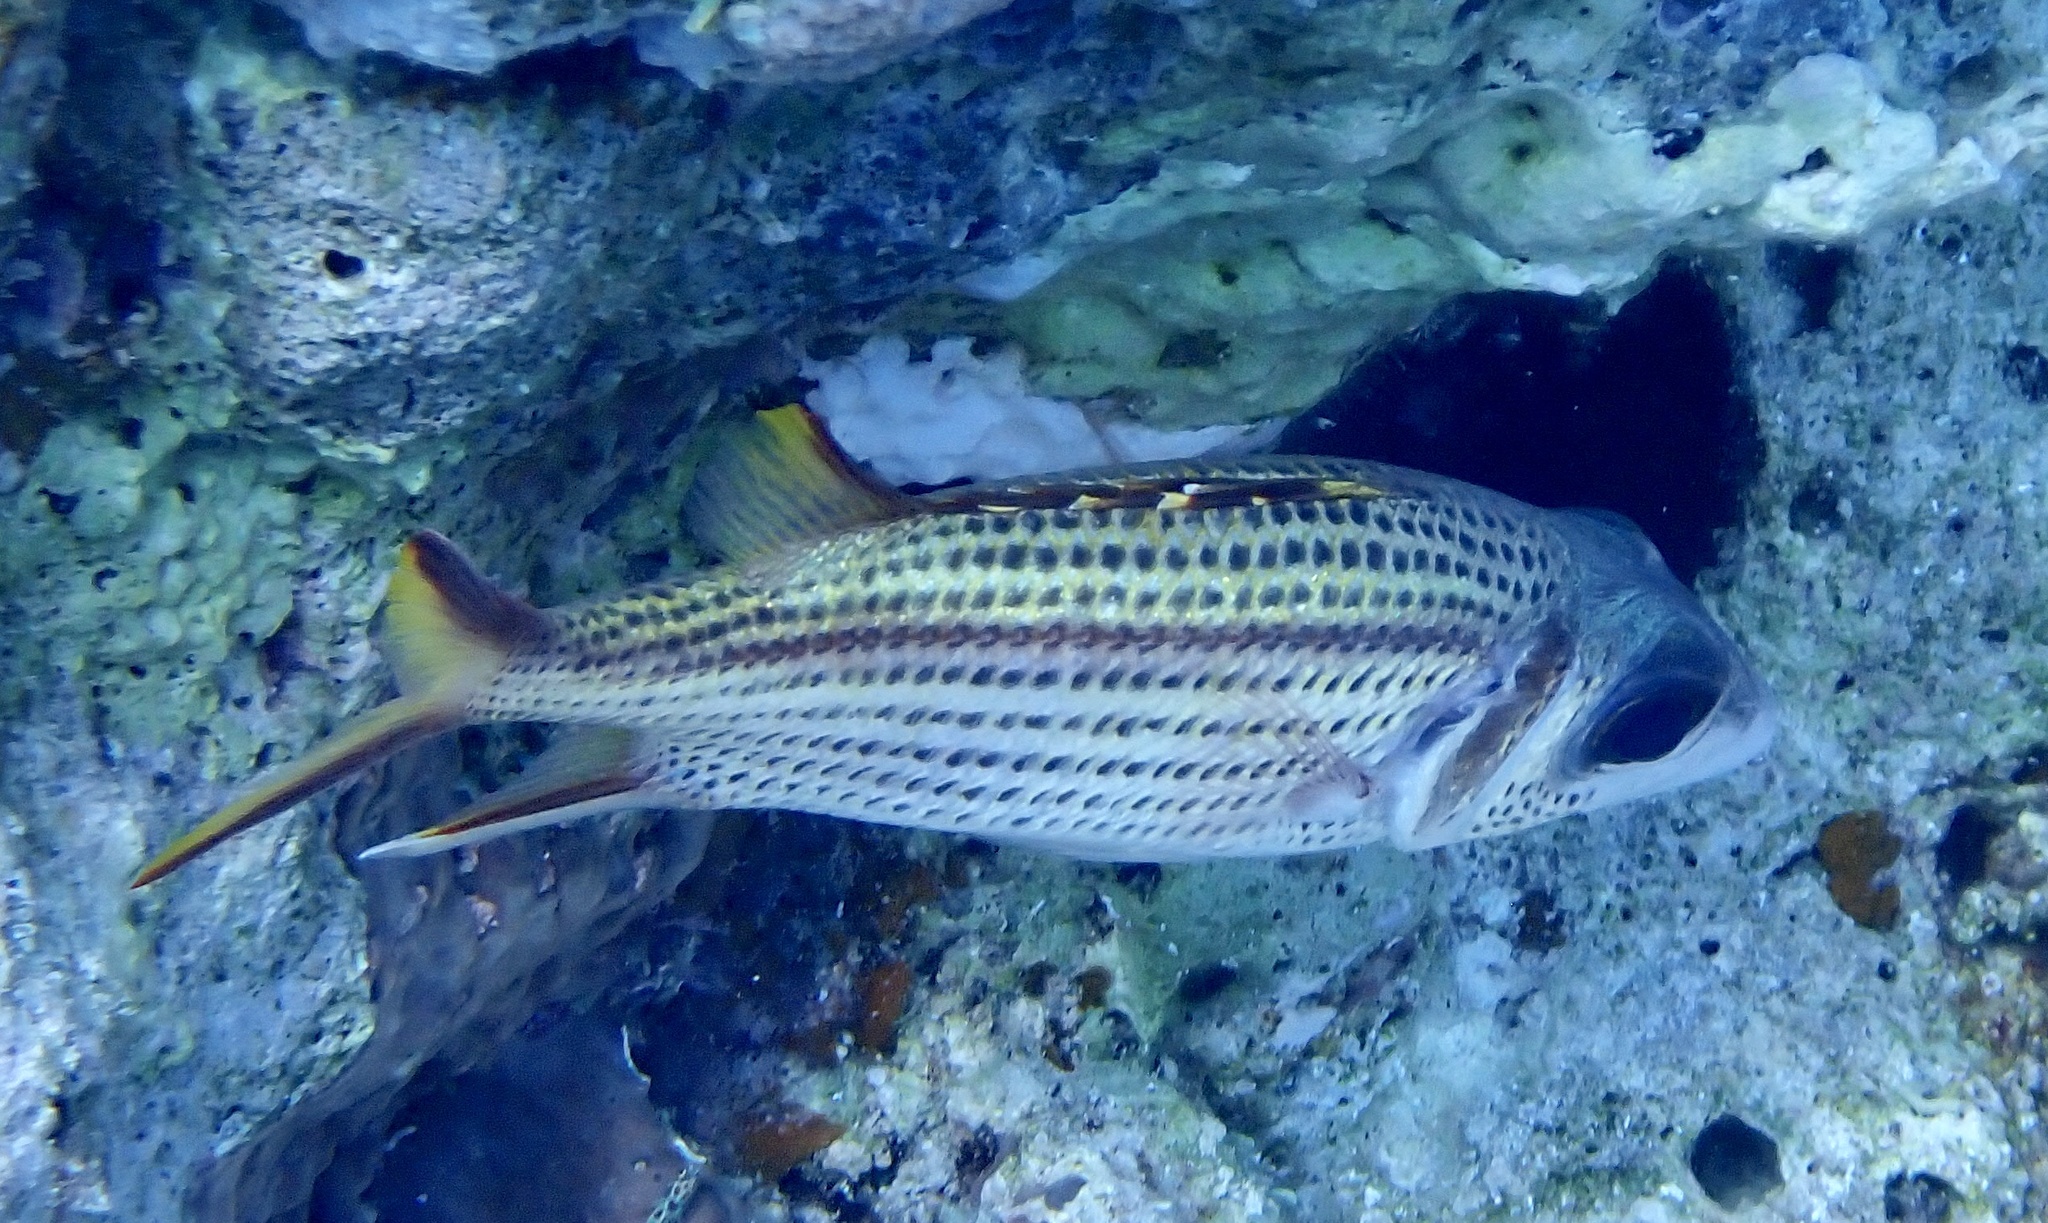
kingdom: Animalia
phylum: Chordata
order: Beryciformes
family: Holocentridae
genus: Neoniphon
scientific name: Neoniphon sammara
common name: Sammara squirrelfish
